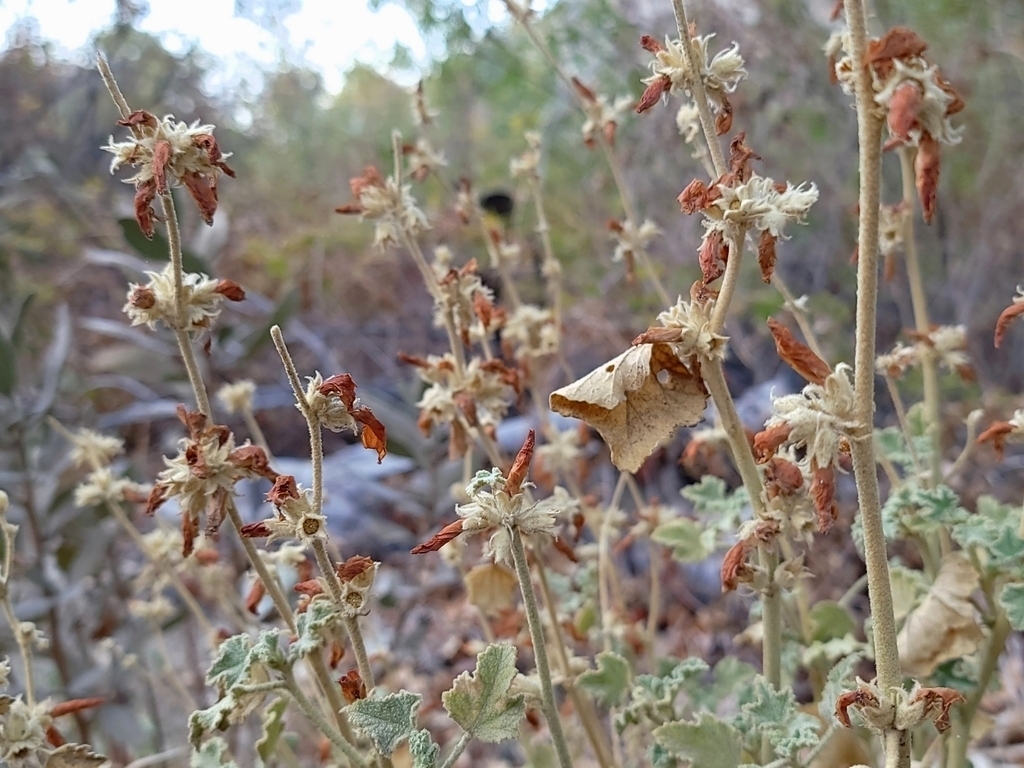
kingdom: Plantae
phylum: Tracheophyta
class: Magnoliopsida
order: Malvales
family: Malvaceae
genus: Malacothamnus
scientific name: Malacothamnus marrubioides
